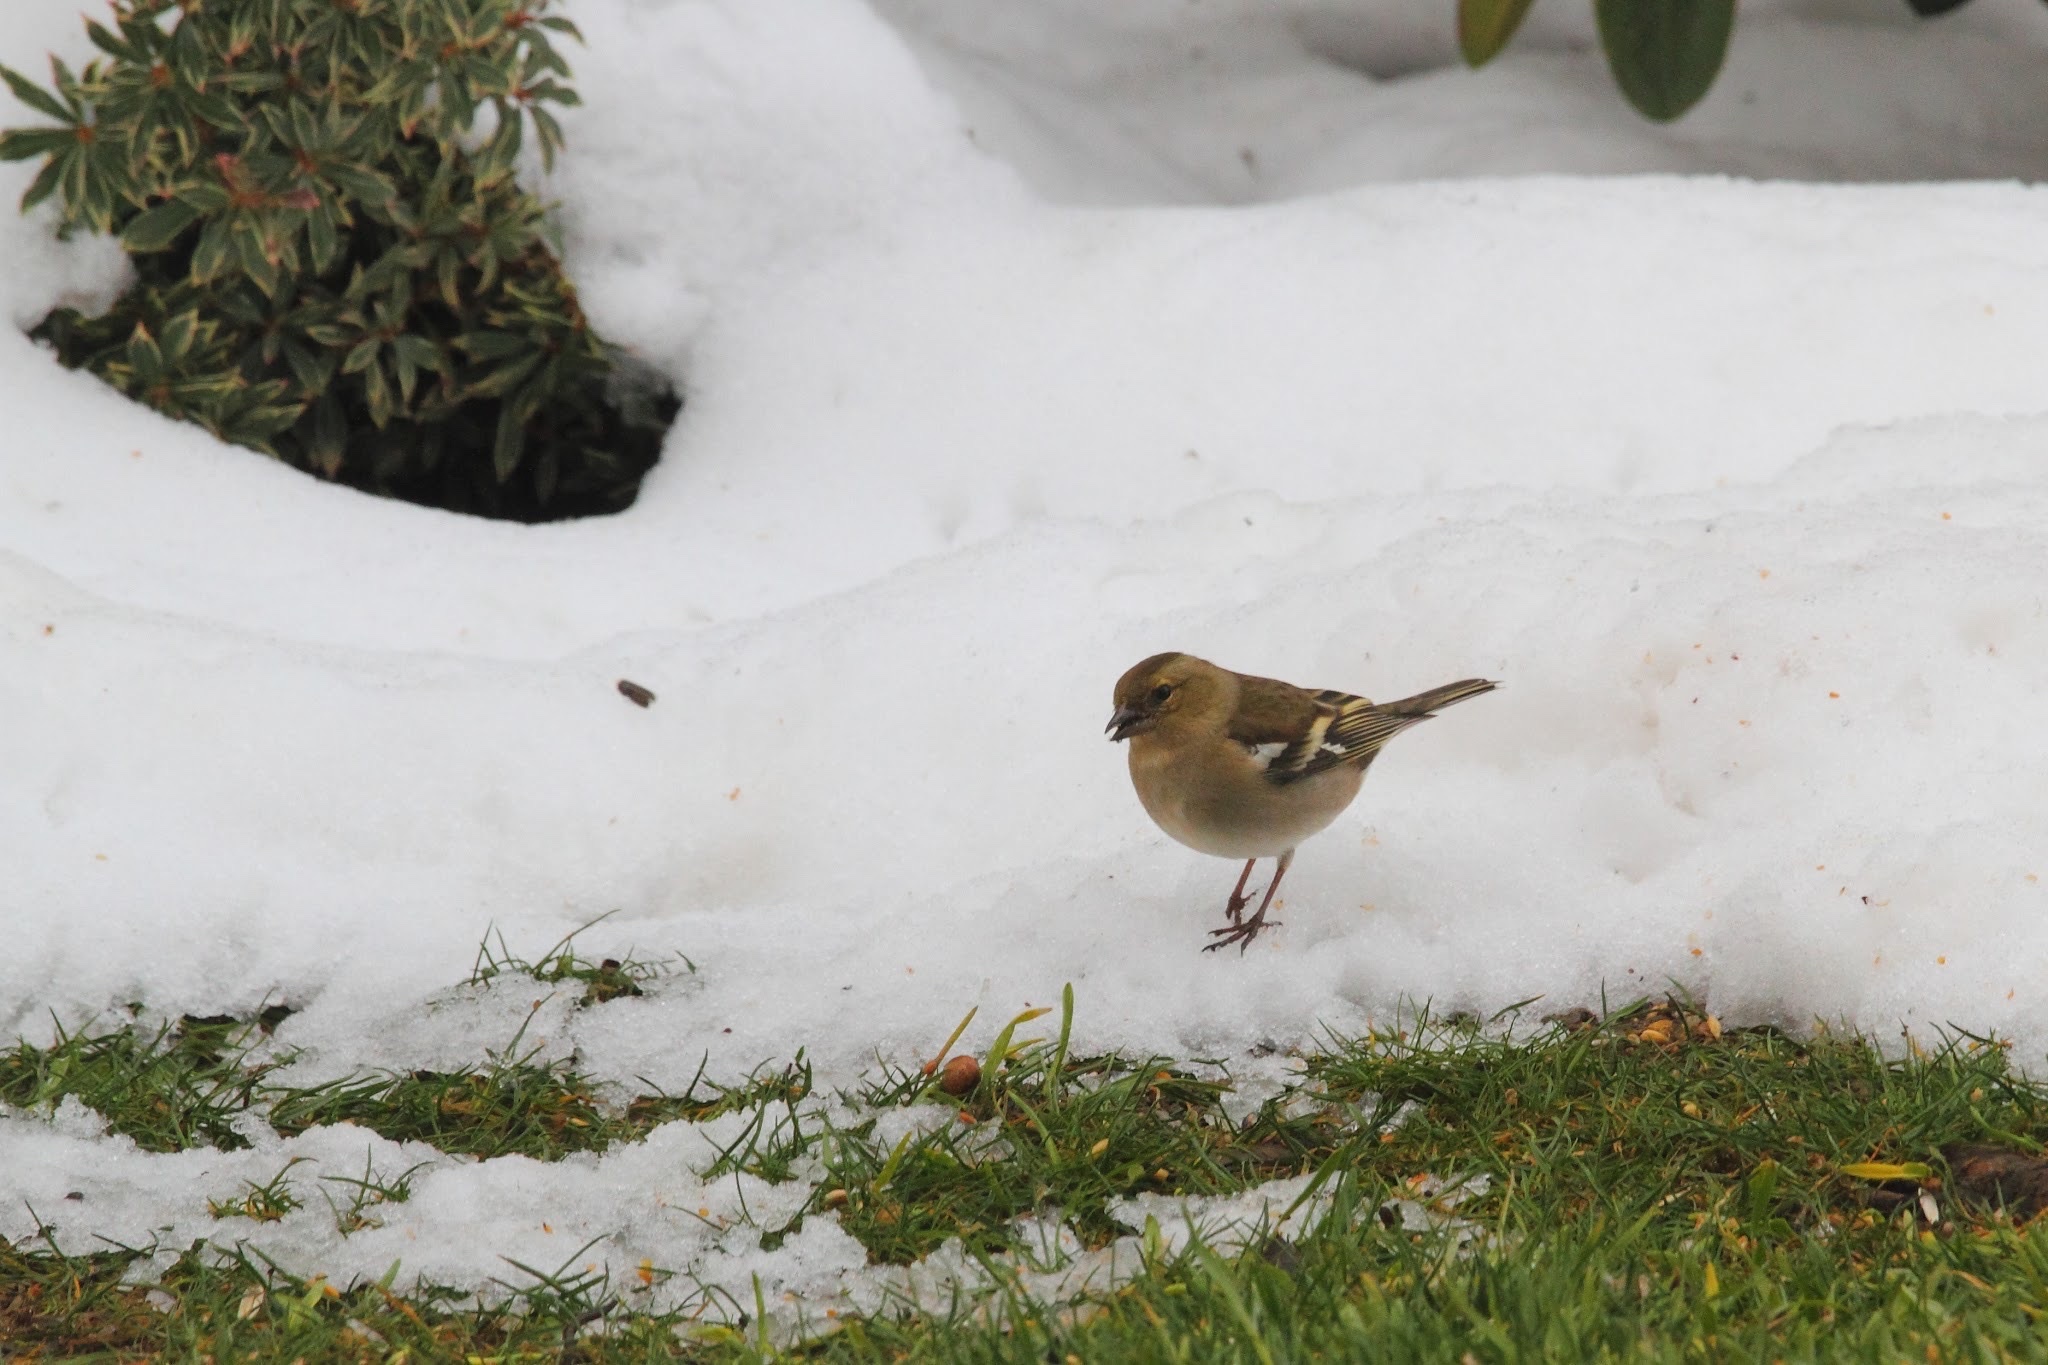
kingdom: Animalia
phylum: Chordata
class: Aves
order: Passeriformes
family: Fringillidae
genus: Fringilla
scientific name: Fringilla coelebs
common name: Common chaffinch
